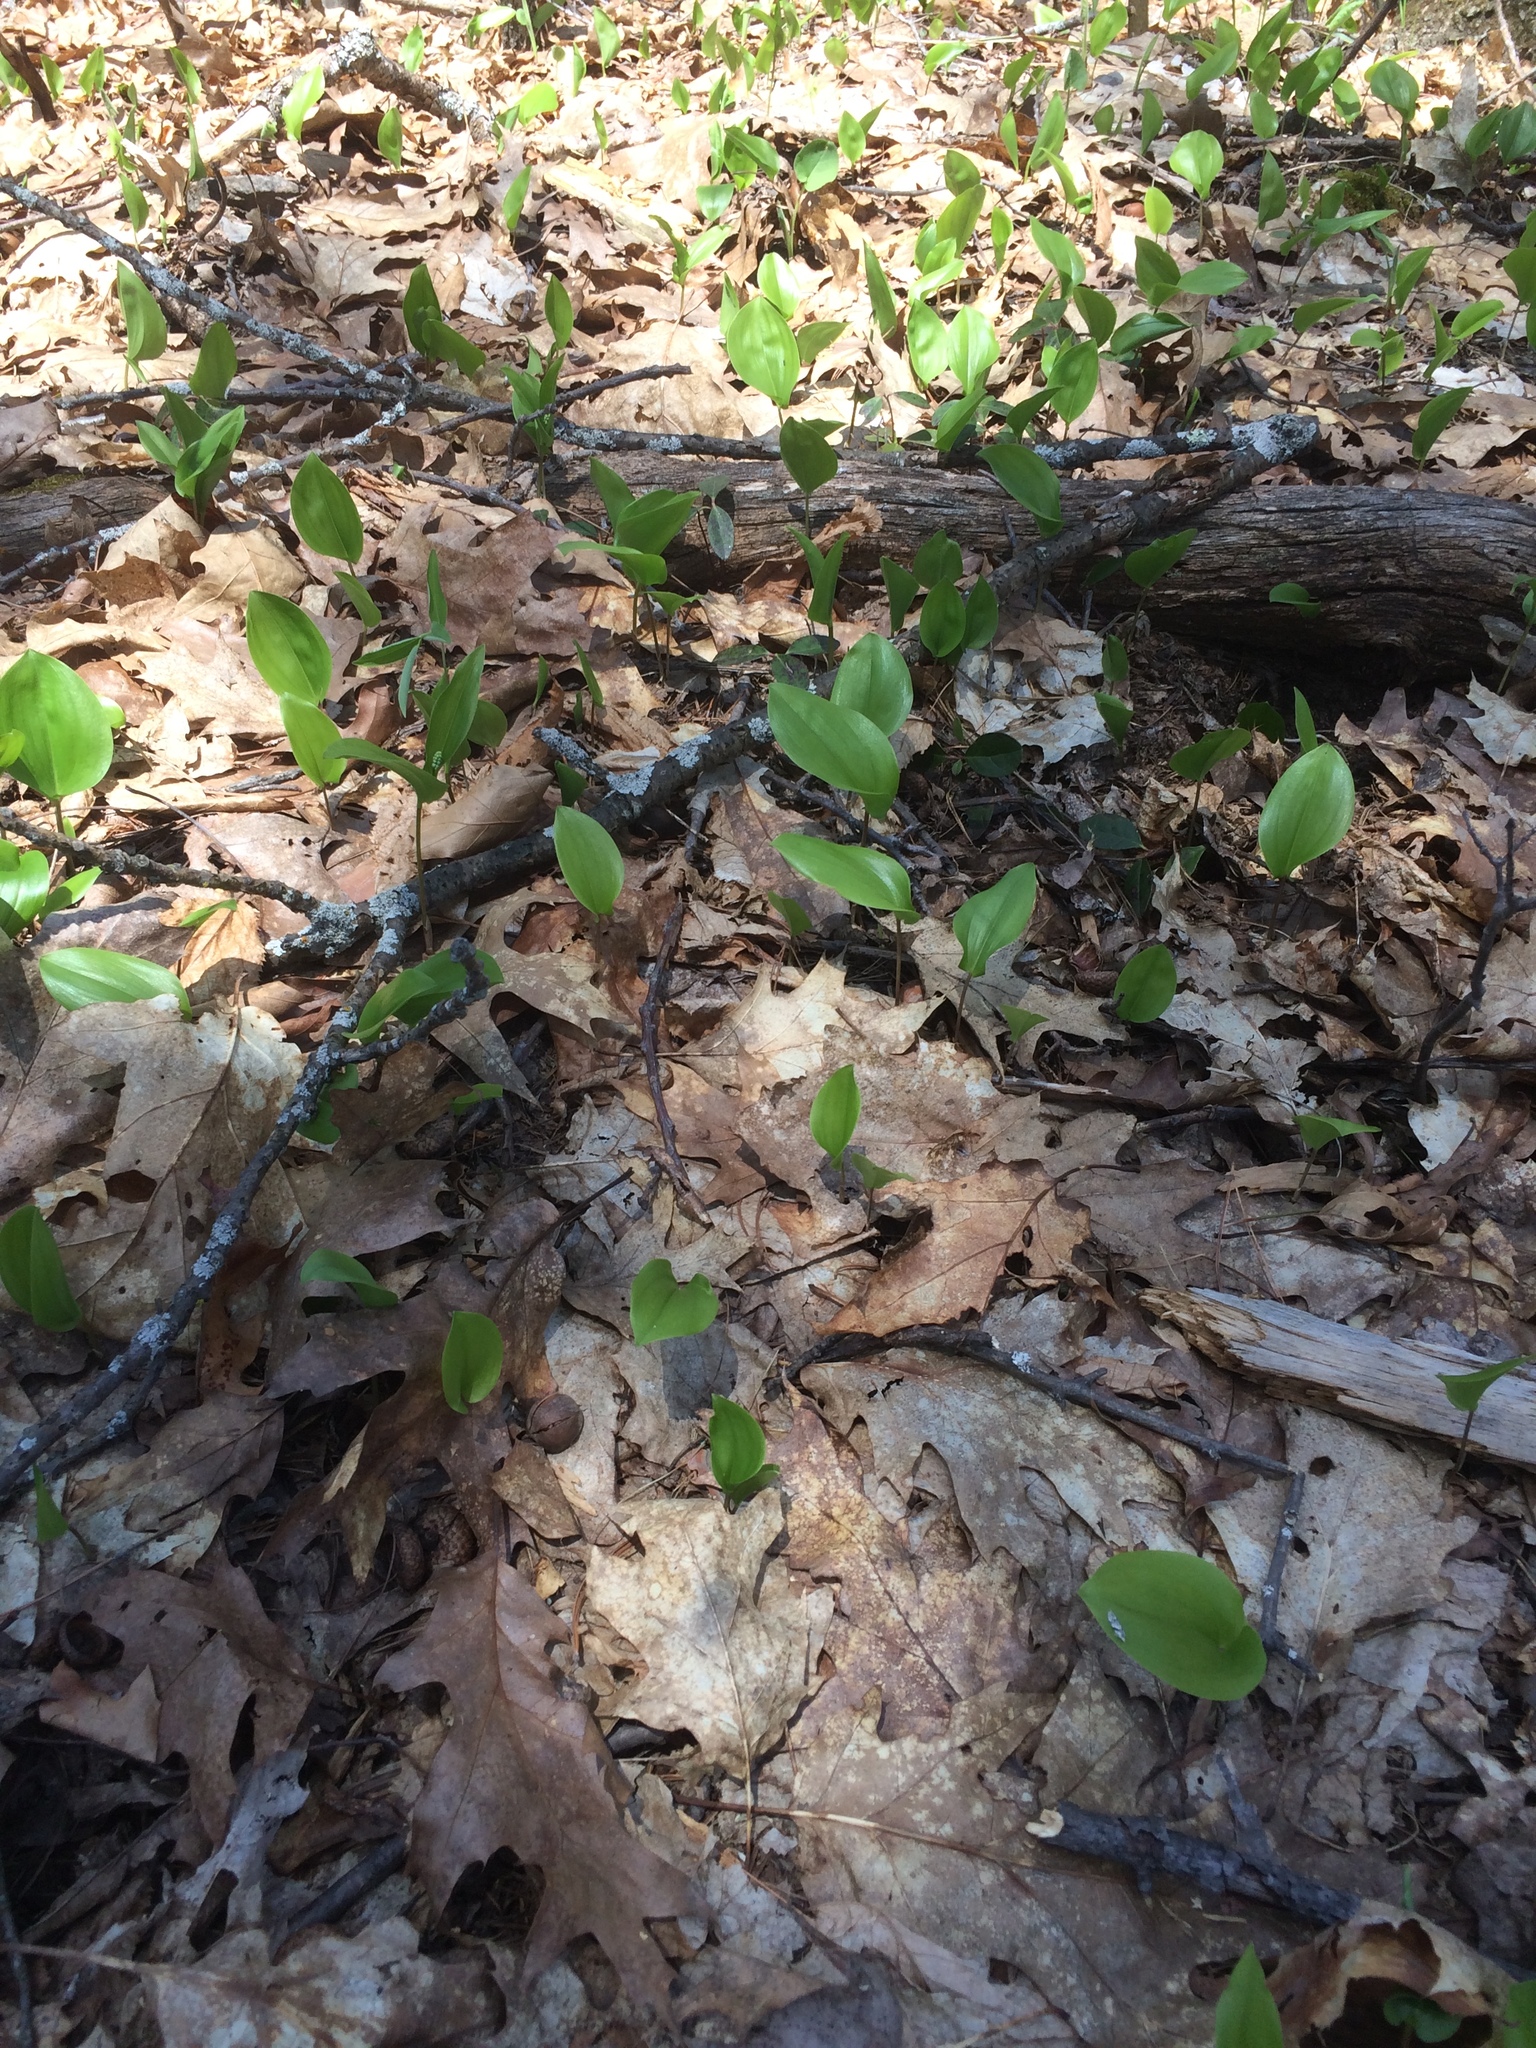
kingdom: Plantae
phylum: Tracheophyta
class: Liliopsida
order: Asparagales
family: Asparagaceae
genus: Maianthemum
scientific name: Maianthemum canadense
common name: False lily-of-the-valley
